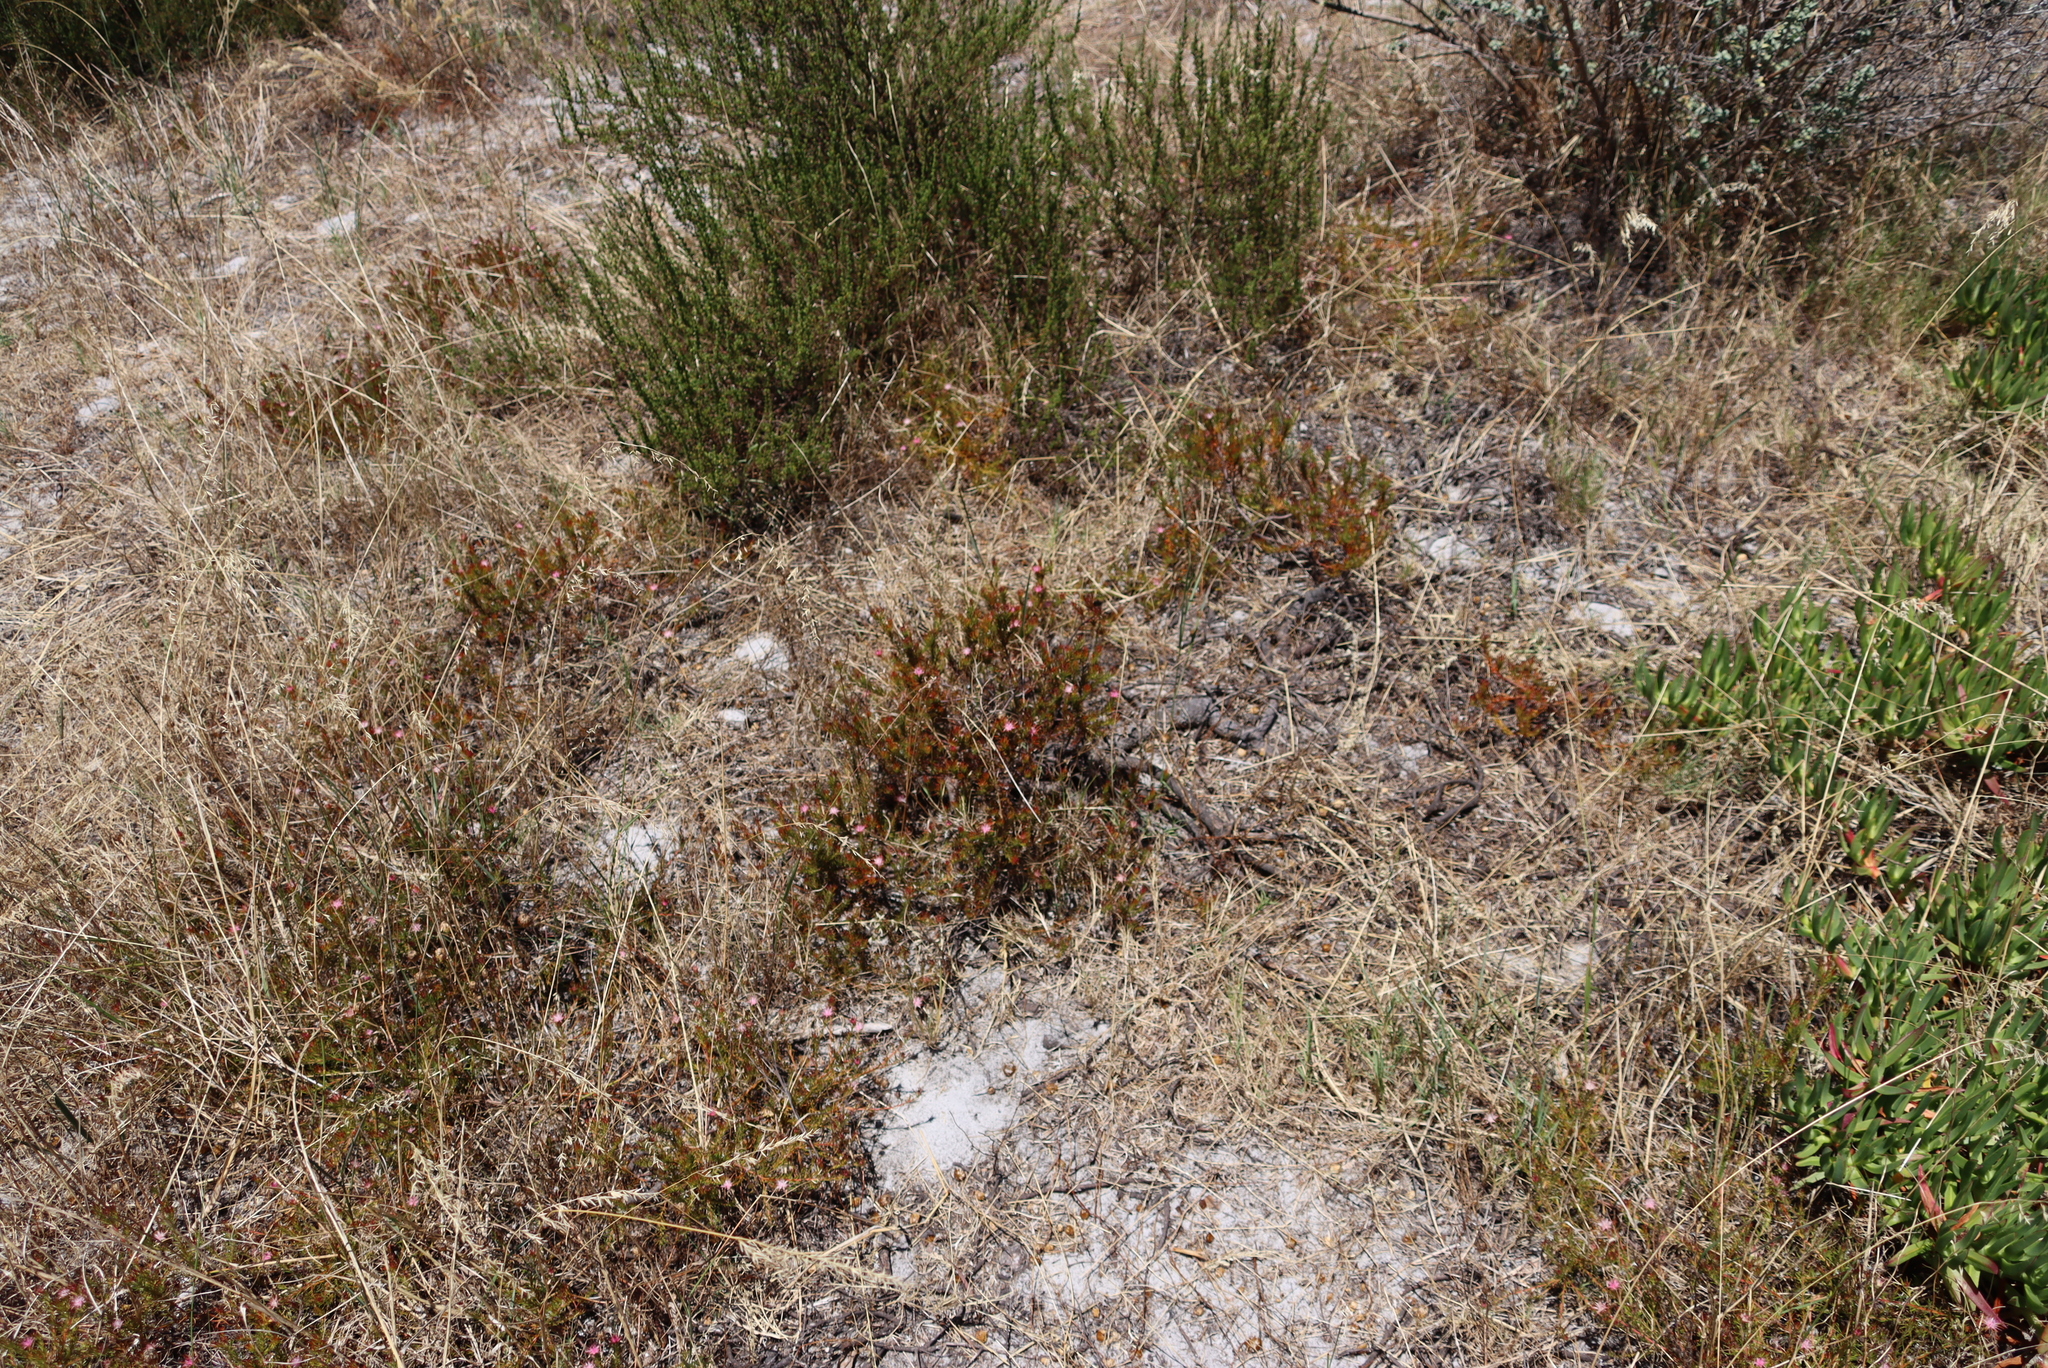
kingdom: Plantae
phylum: Tracheophyta
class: Magnoliopsida
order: Proteales
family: Proteaceae
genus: Diastella
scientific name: Diastella proteoides
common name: Flats silkypuff
